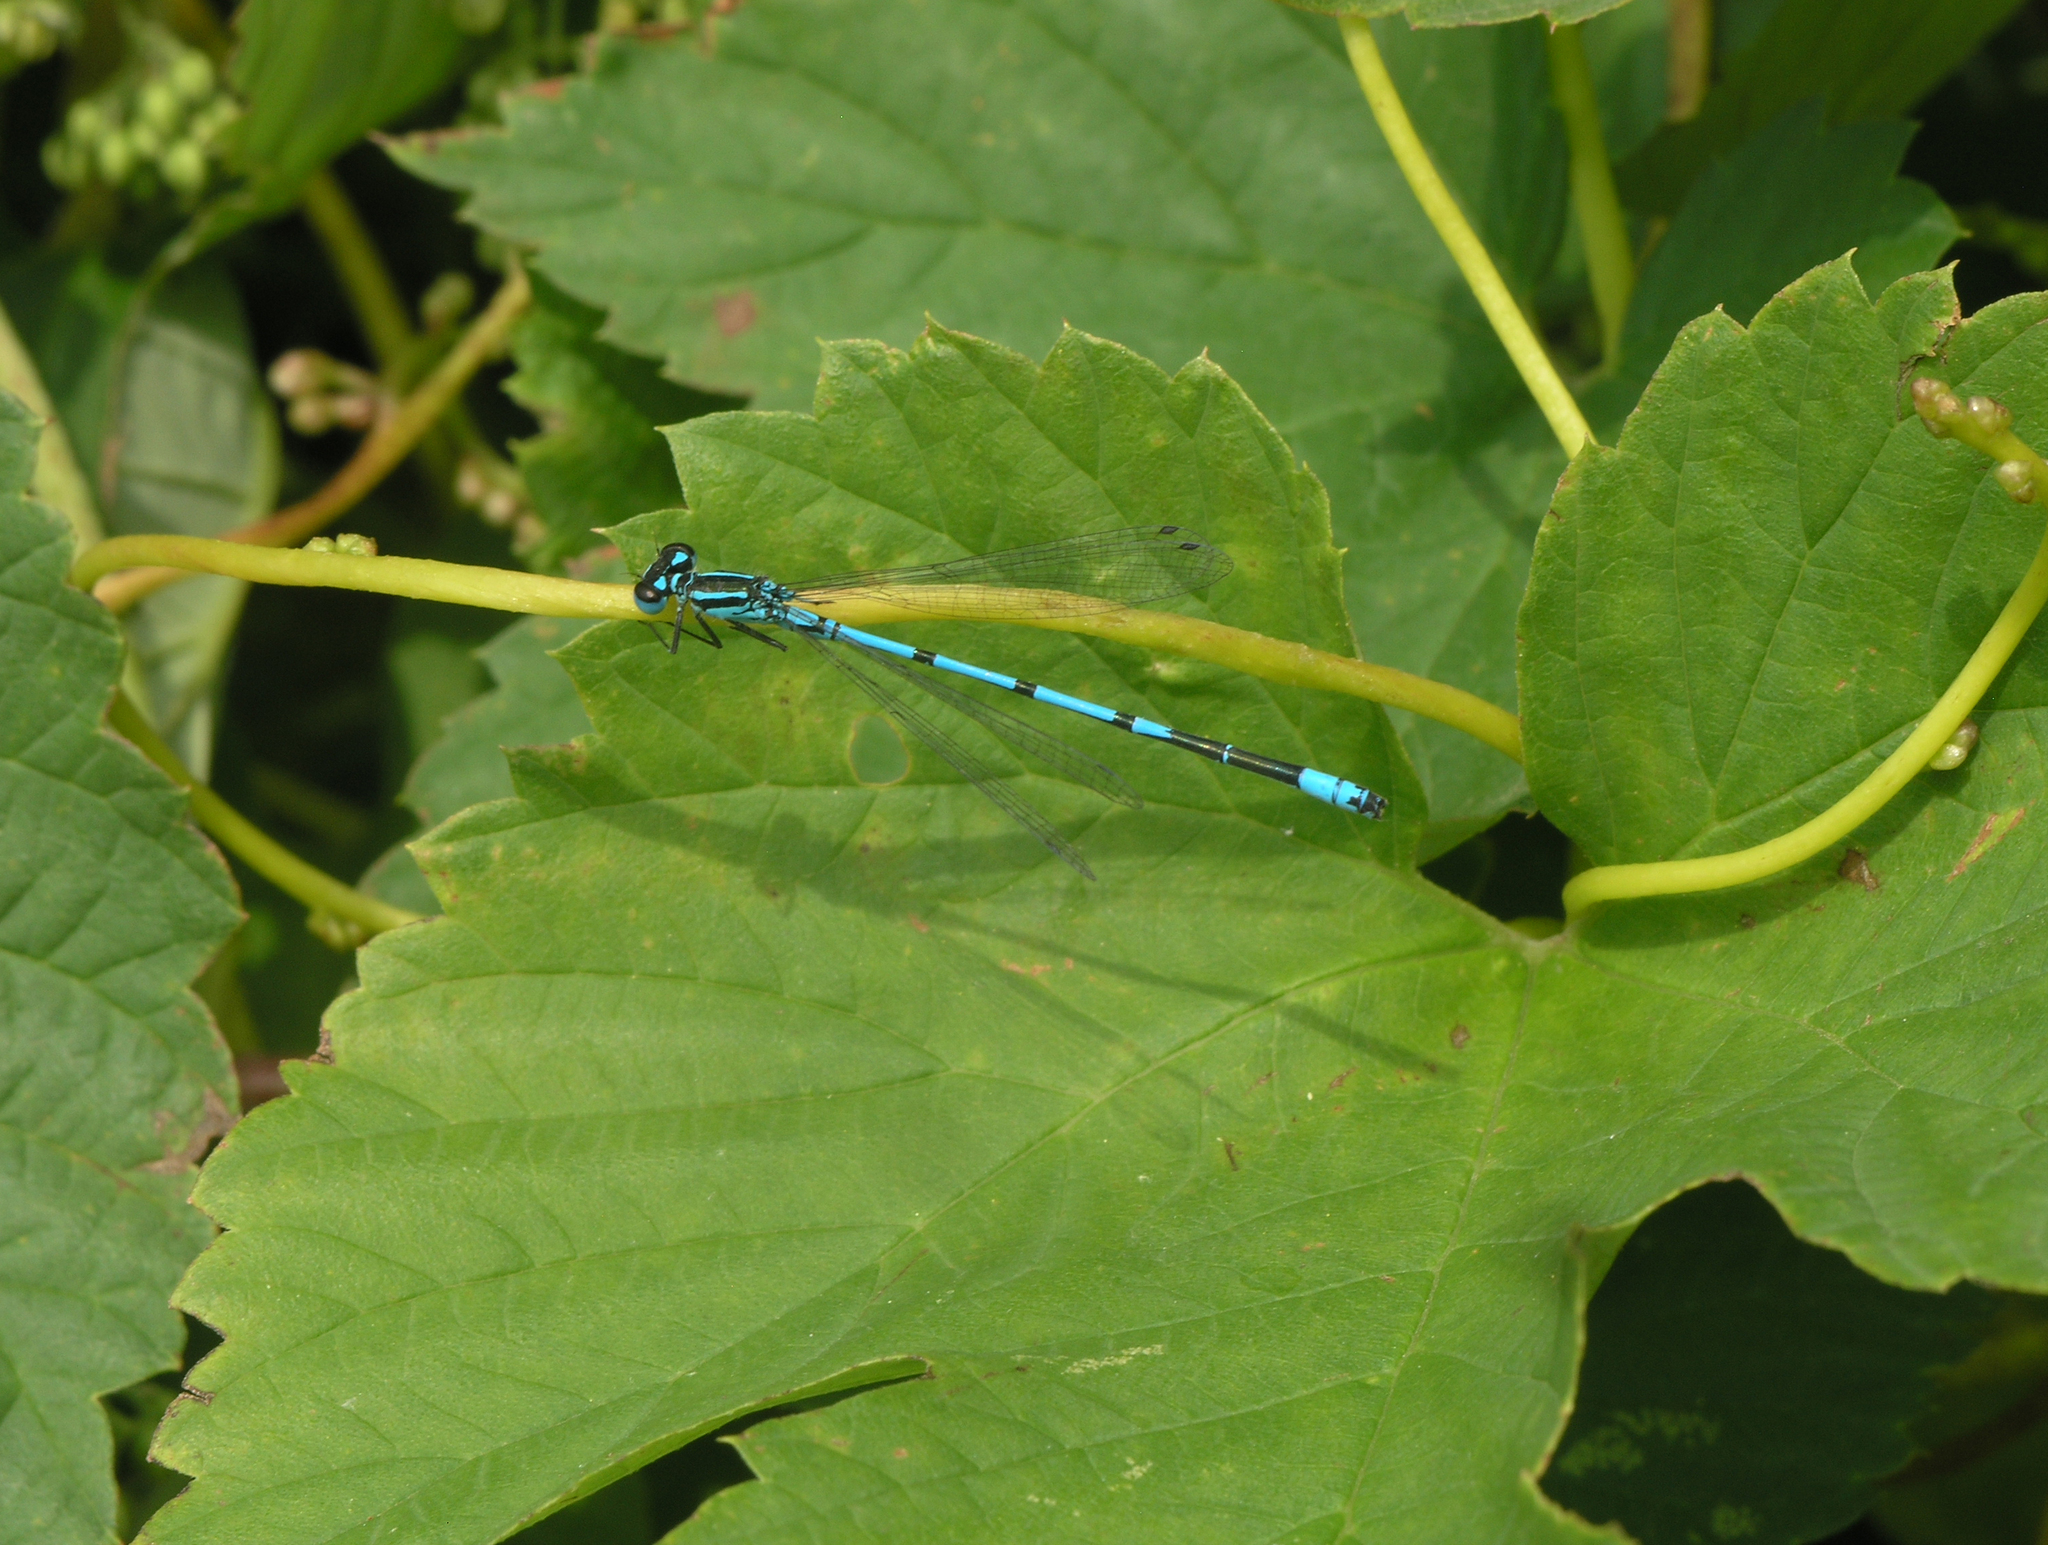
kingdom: Animalia
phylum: Arthropoda
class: Insecta
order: Odonata
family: Coenagrionidae
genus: Coenagrion
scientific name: Coenagrion puella
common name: Azure damselfly
